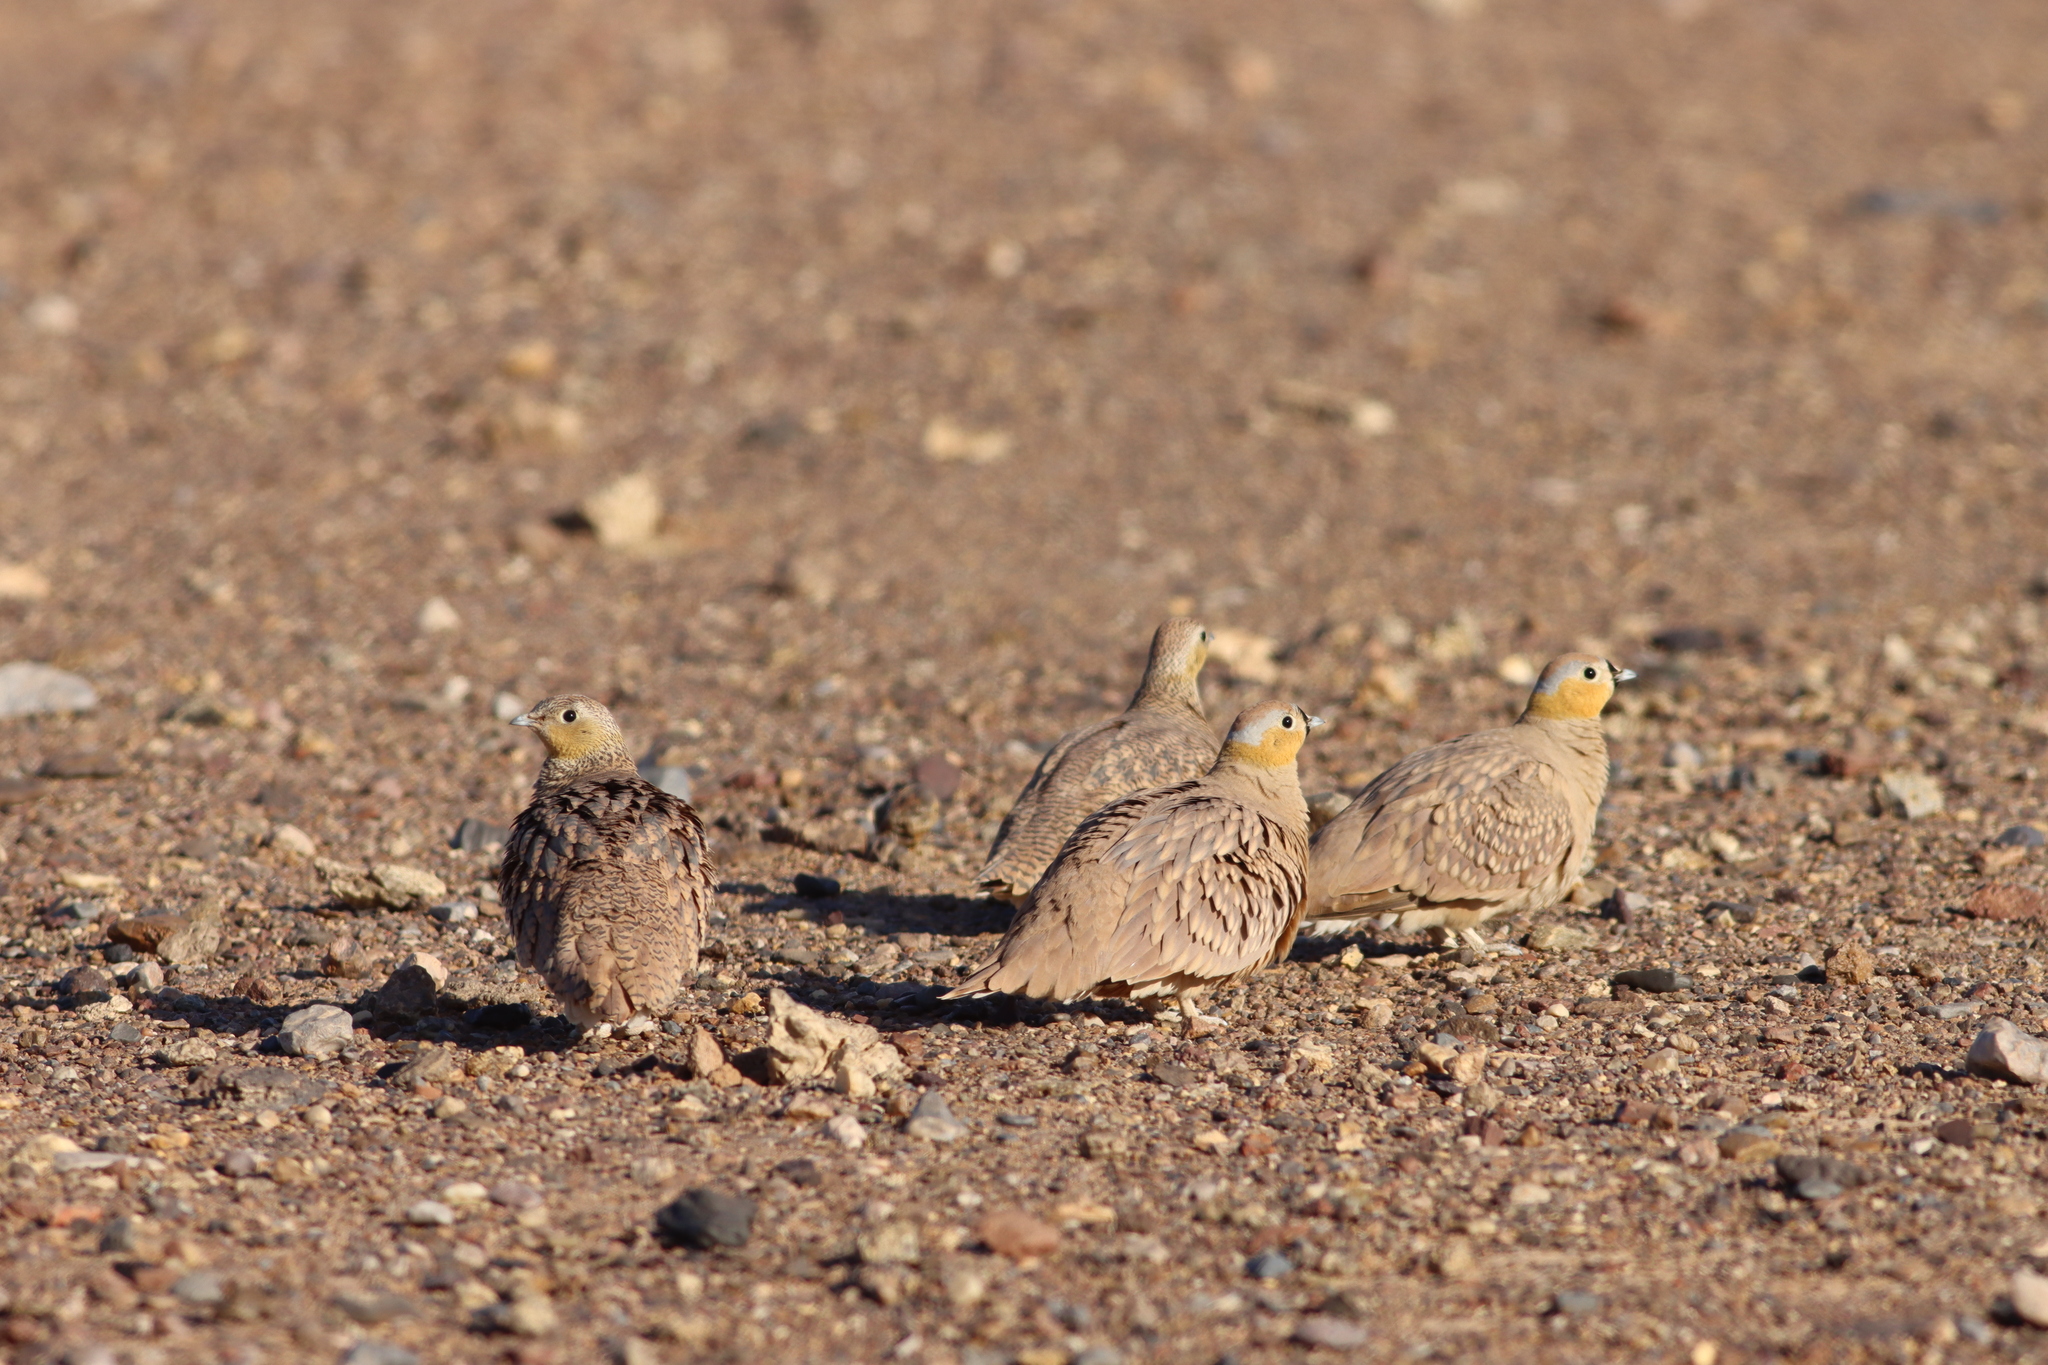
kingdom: Animalia
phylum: Chordata
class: Aves
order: Pteroclidiformes
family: Pteroclididae
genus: Pterocles
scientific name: Pterocles coronatus
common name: Crowned sandgrouse
